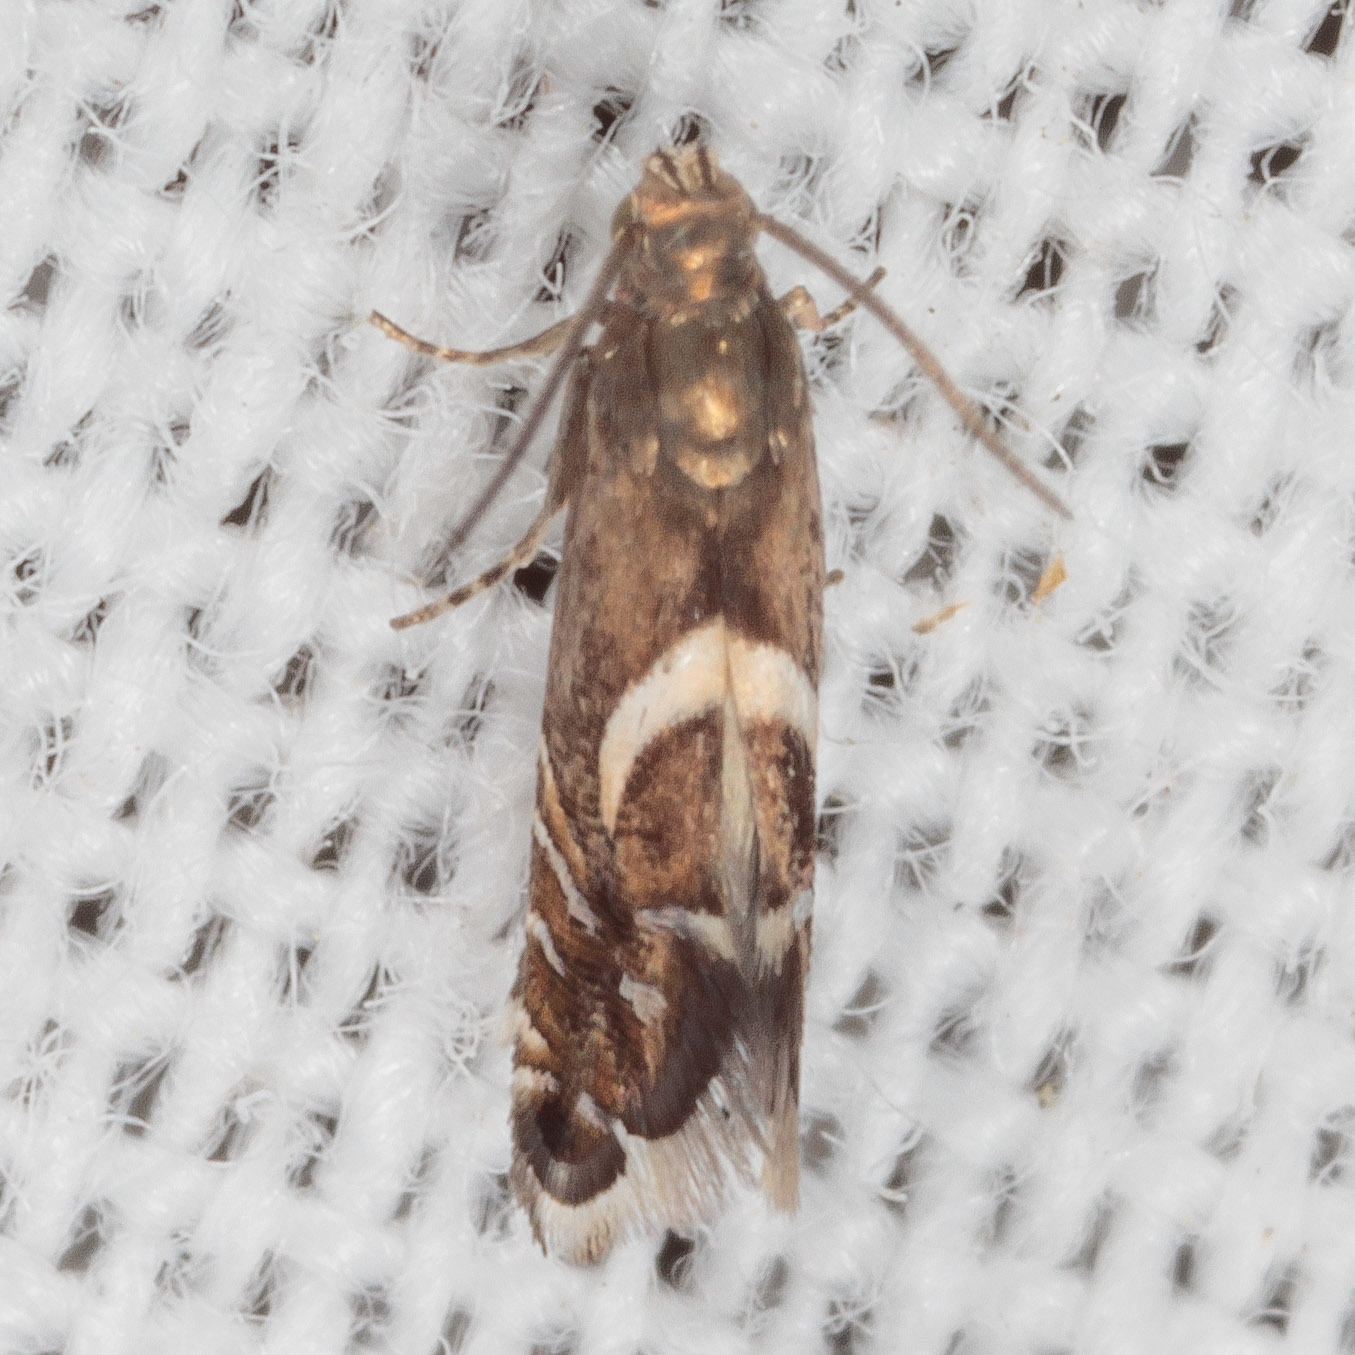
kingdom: Animalia
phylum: Arthropoda
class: Insecta
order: Lepidoptera
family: Glyphipterigidae
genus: Glyphipterix
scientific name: Glyphipterix Diploschizia impigritella
